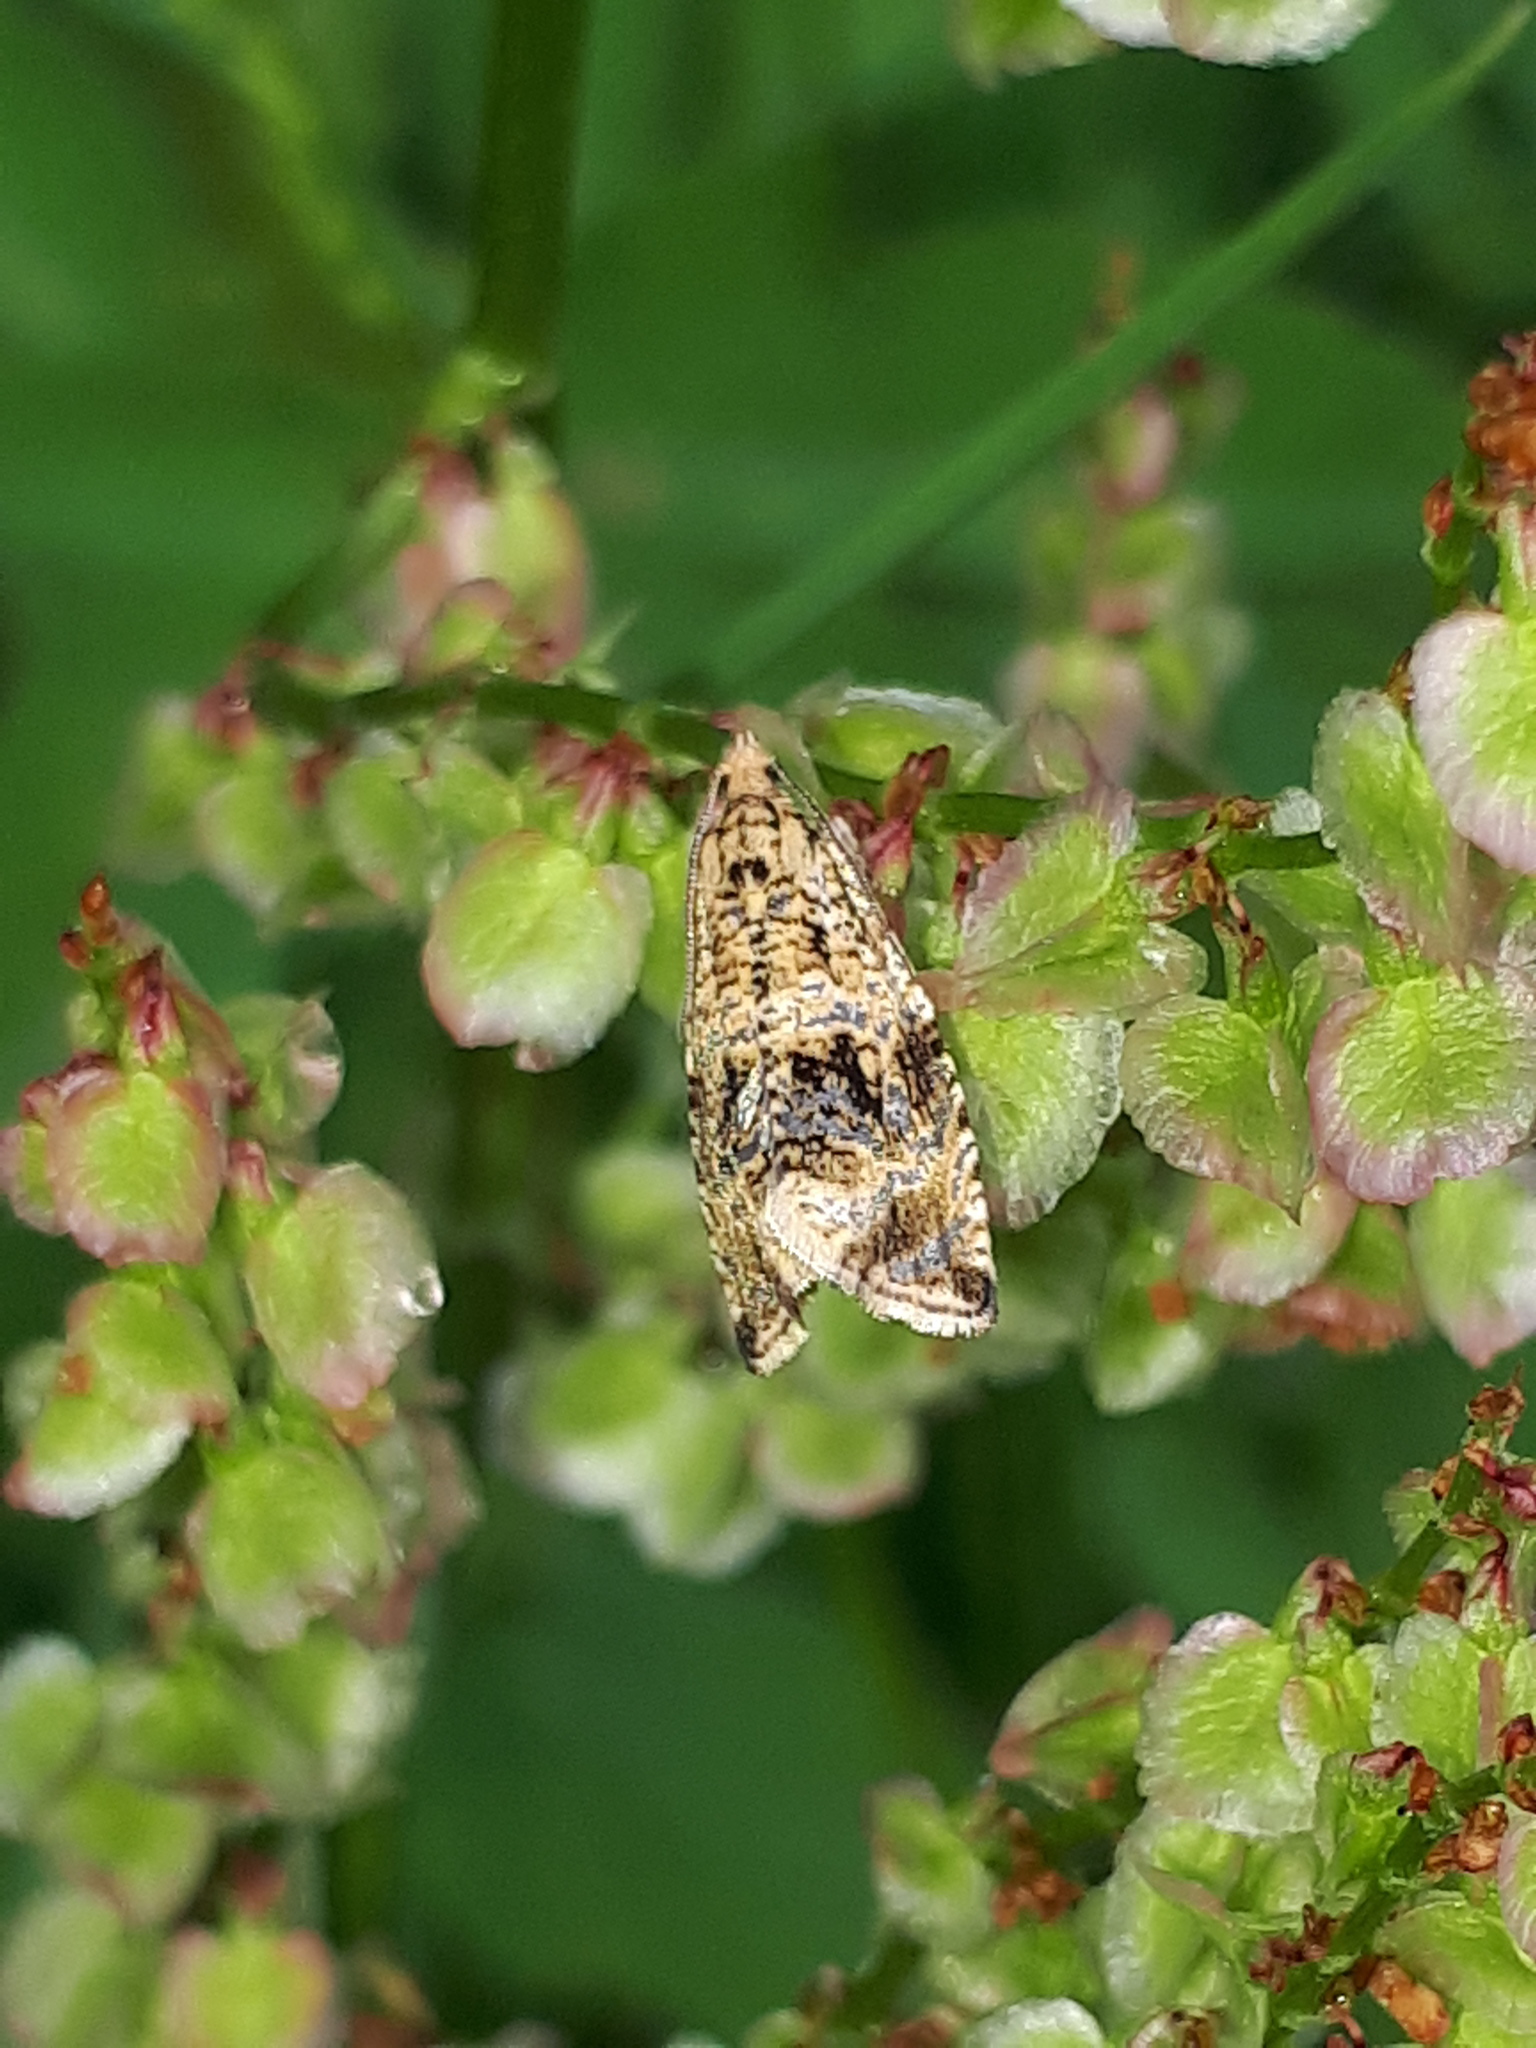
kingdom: Animalia
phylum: Arthropoda
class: Insecta
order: Lepidoptera
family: Tortricidae
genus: Syricoris
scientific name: Syricoris lacunana
